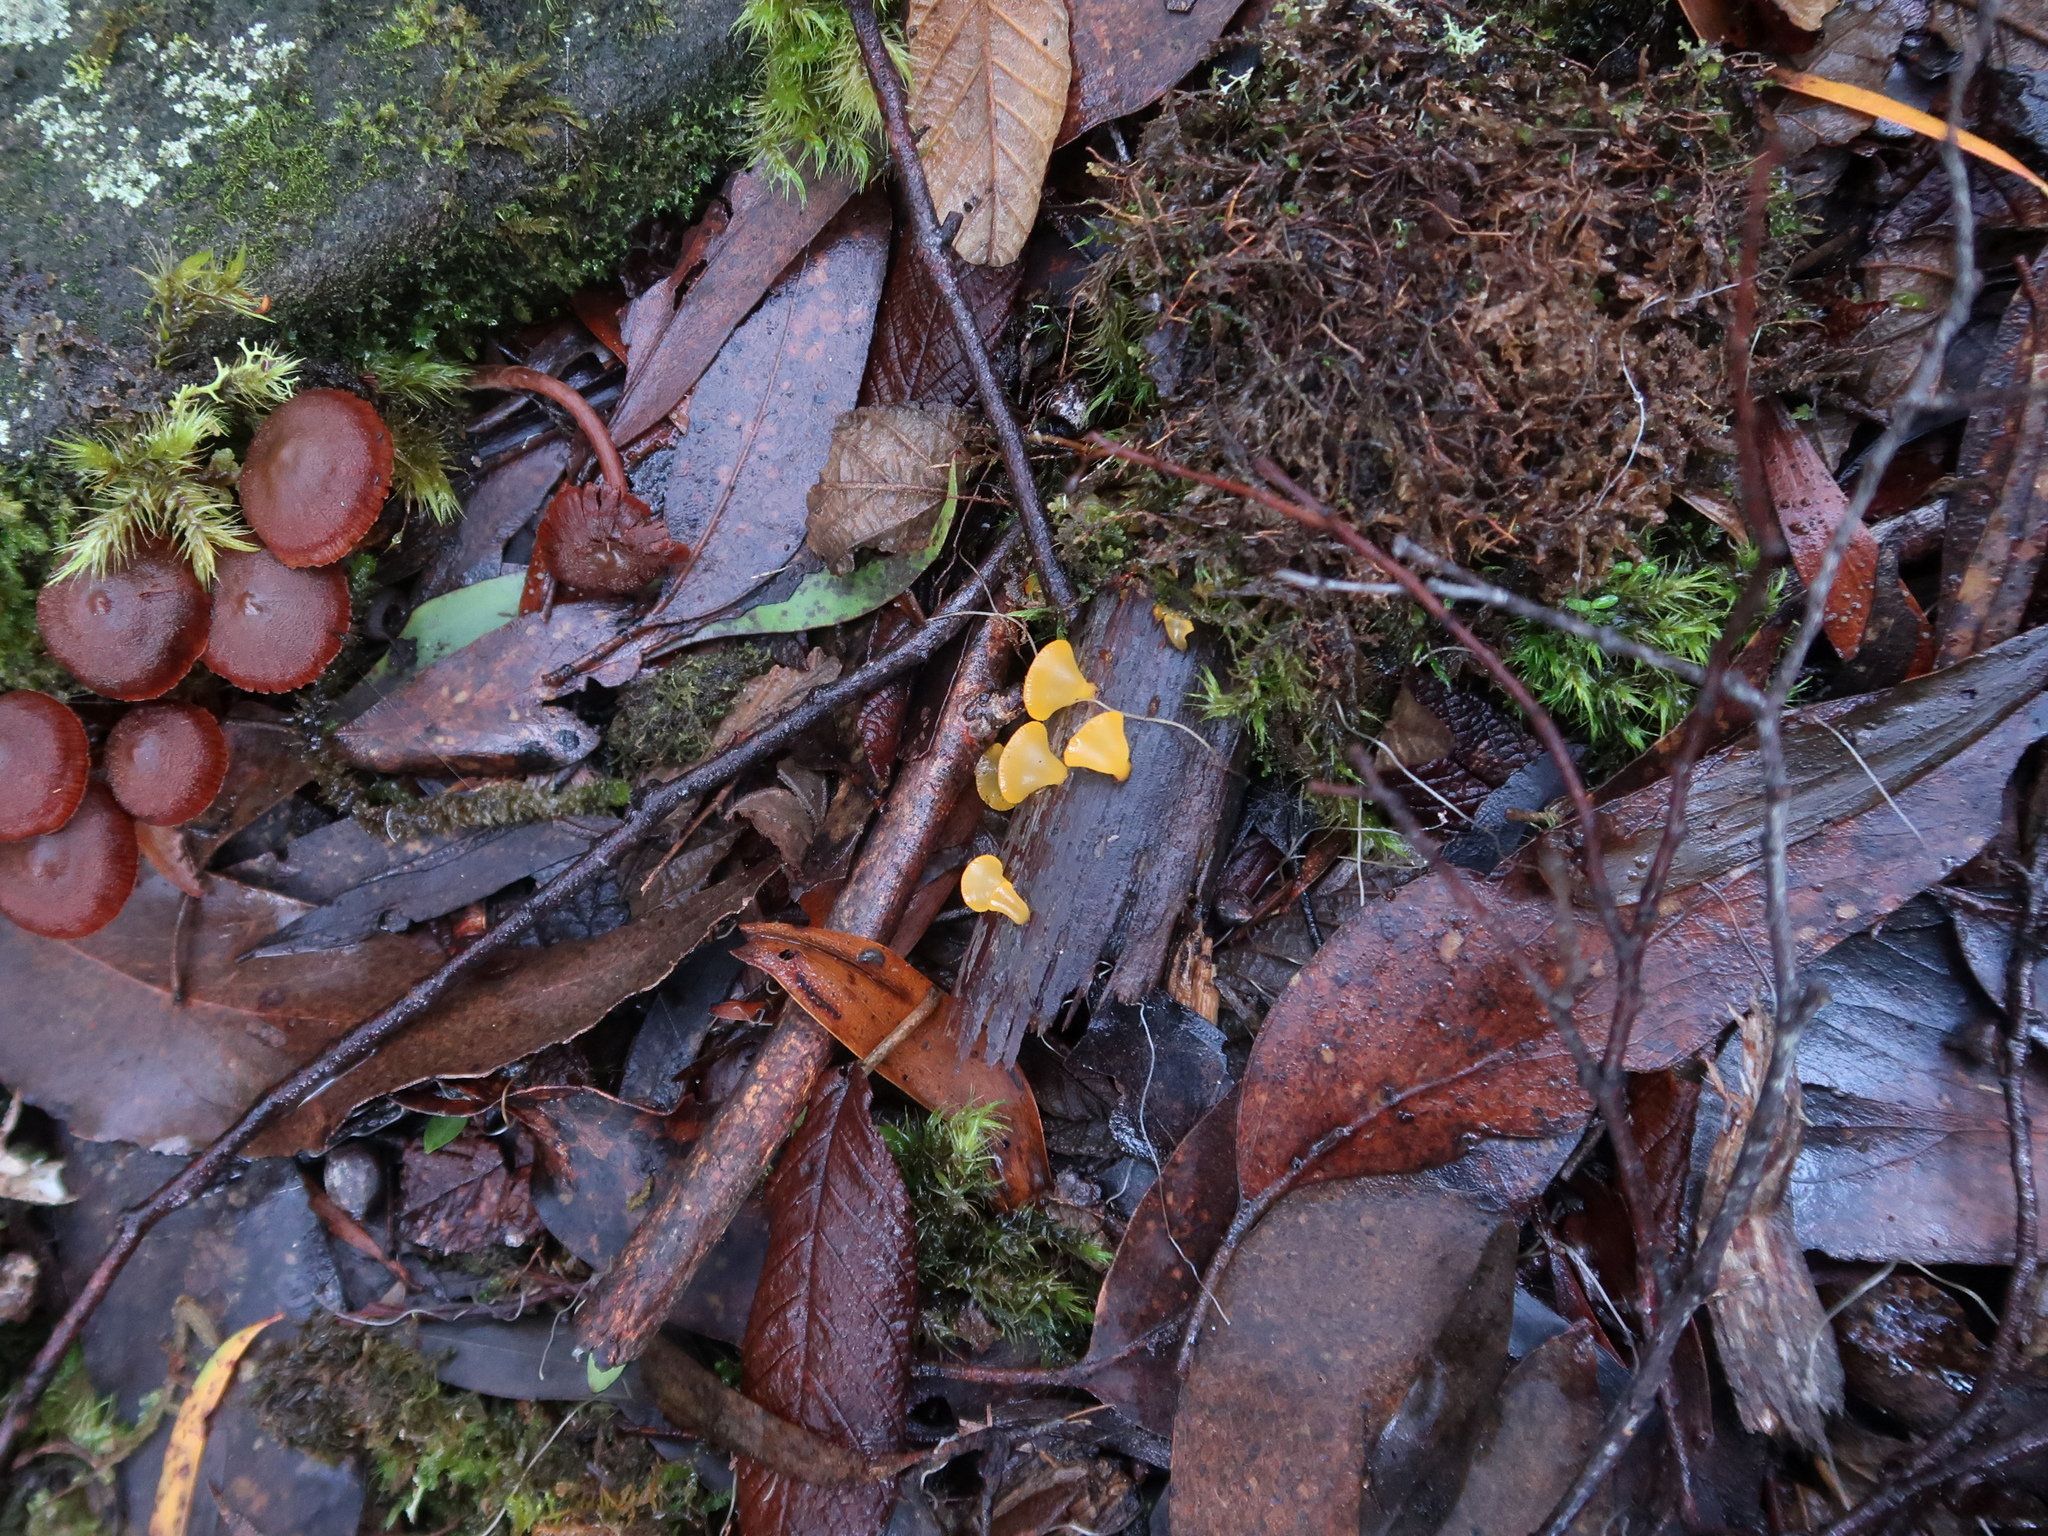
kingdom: Fungi
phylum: Basidiomycota
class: Dacrymycetes
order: Dacrymycetales
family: Dacrymycetaceae
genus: Heterotextus
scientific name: Heterotextus peziziformis
